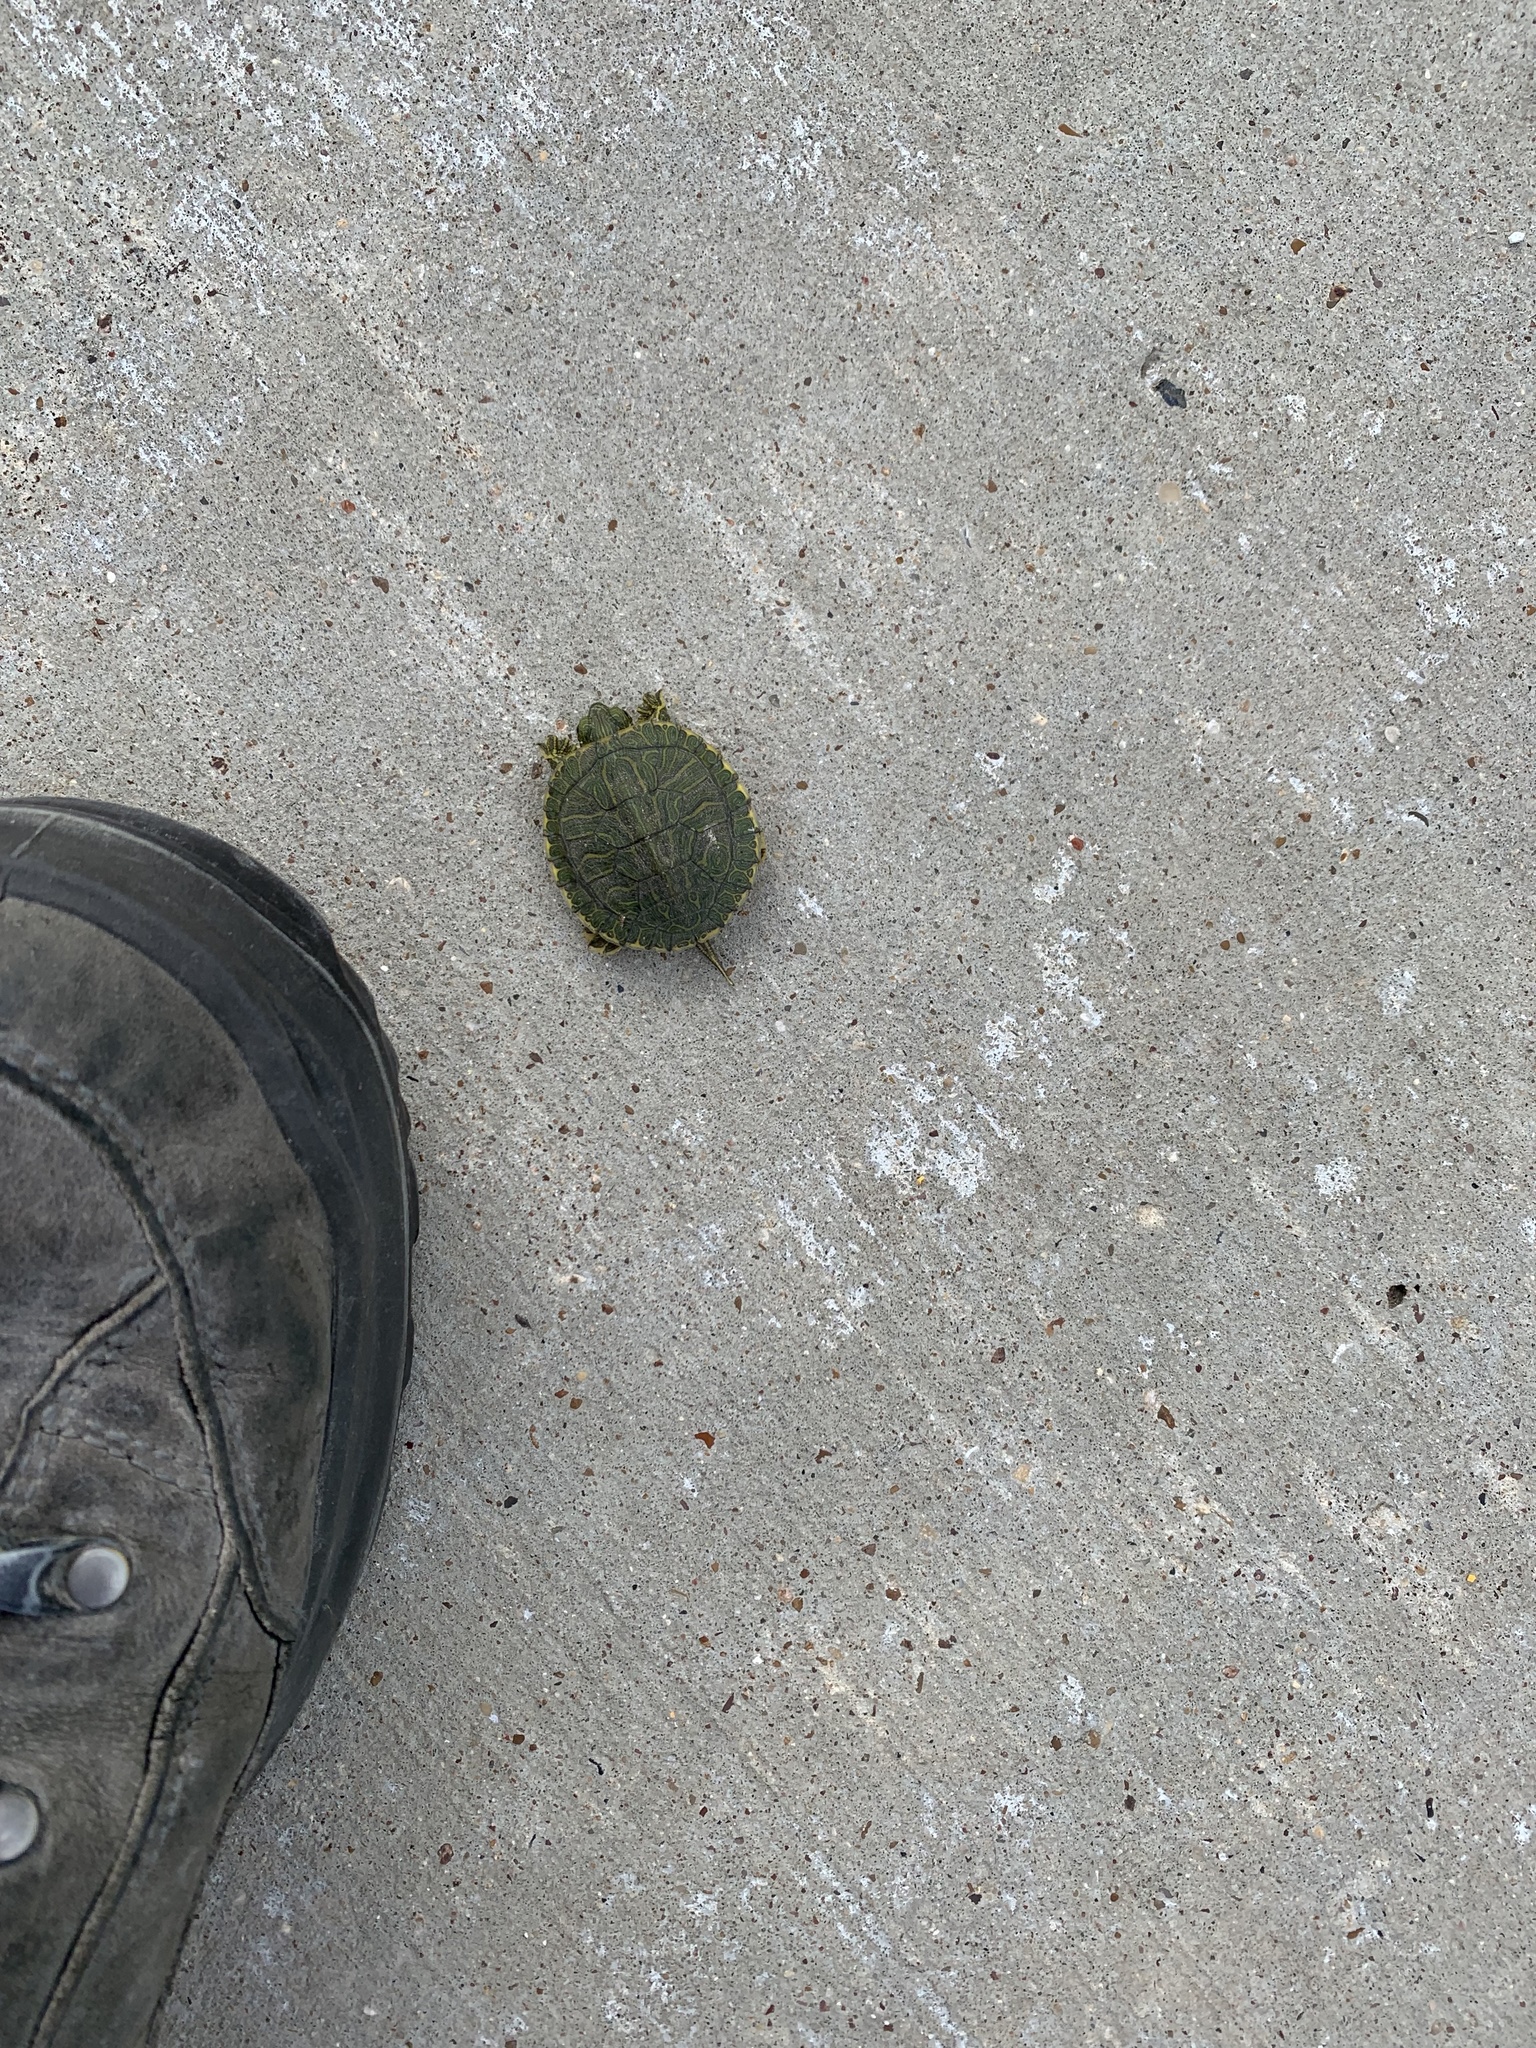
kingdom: Animalia
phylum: Chordata
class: Testudines
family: Emydidae
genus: Trachemys
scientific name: Trachemys scripta
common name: Slider
